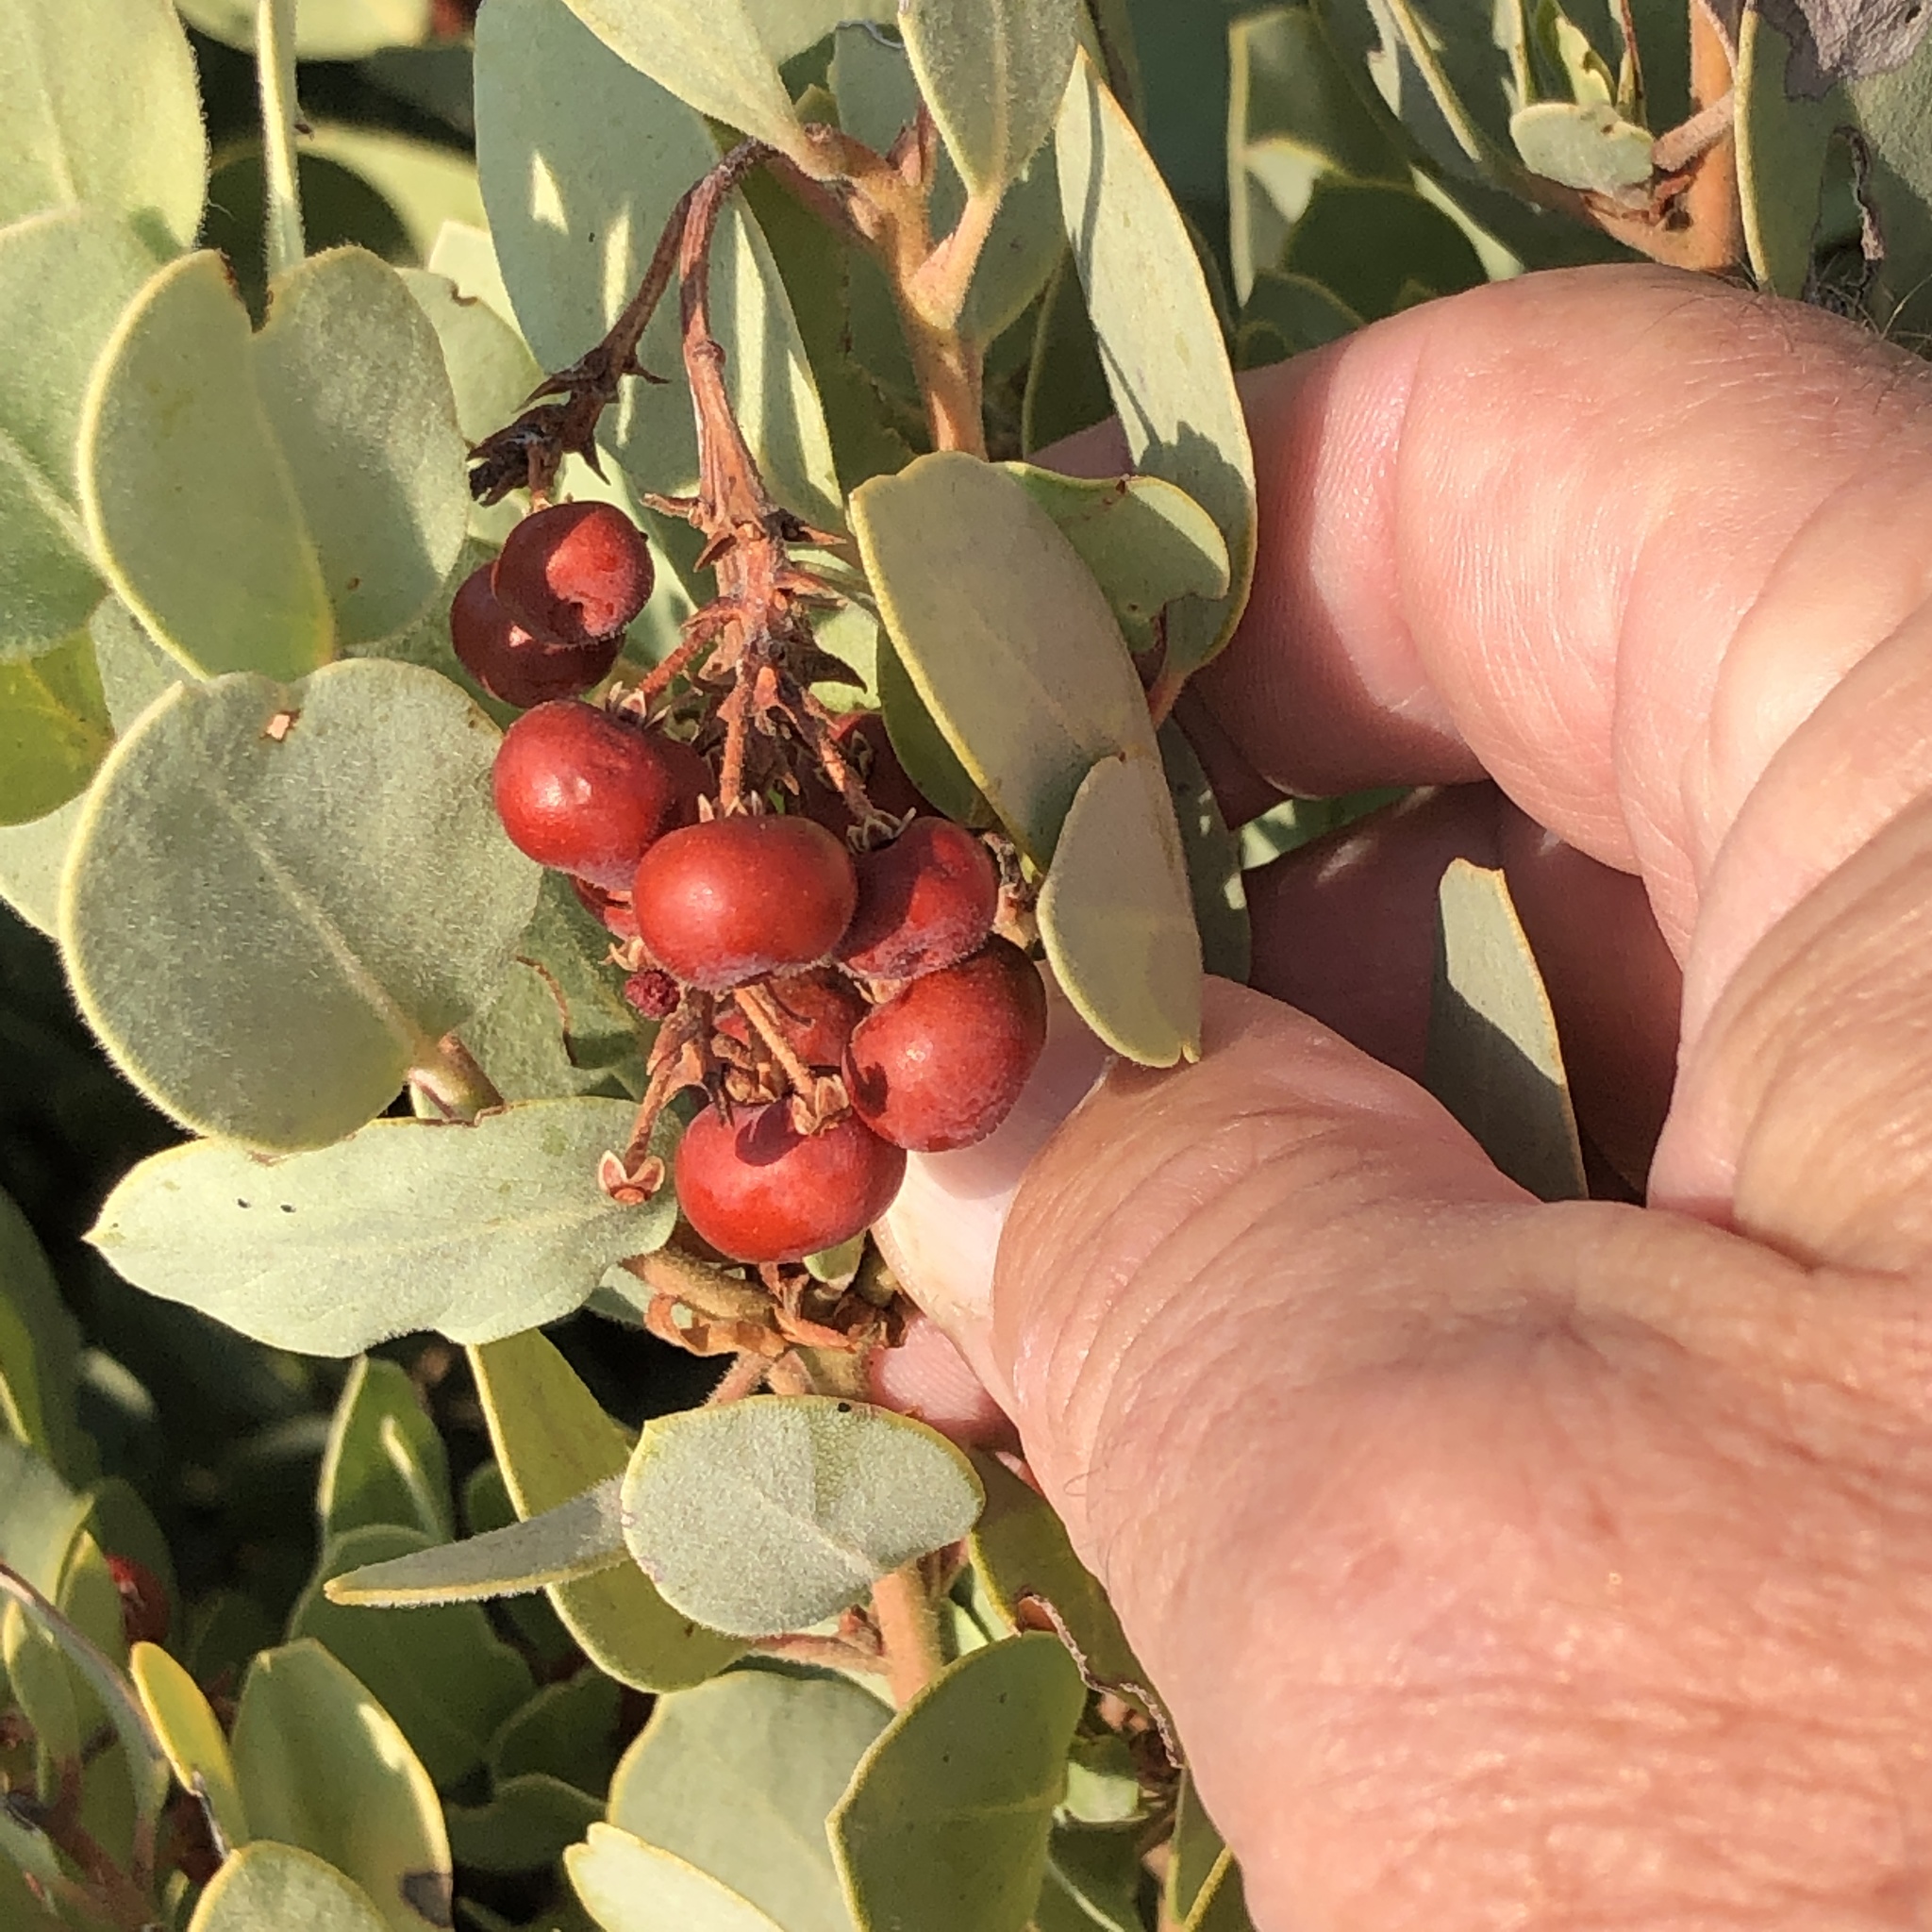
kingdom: Plantae
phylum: Tracheophyta
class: Magnoliopsida
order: Ericales
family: Ericaceae
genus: Arctostaphylos
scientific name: Arctostaphylos glandulosa
